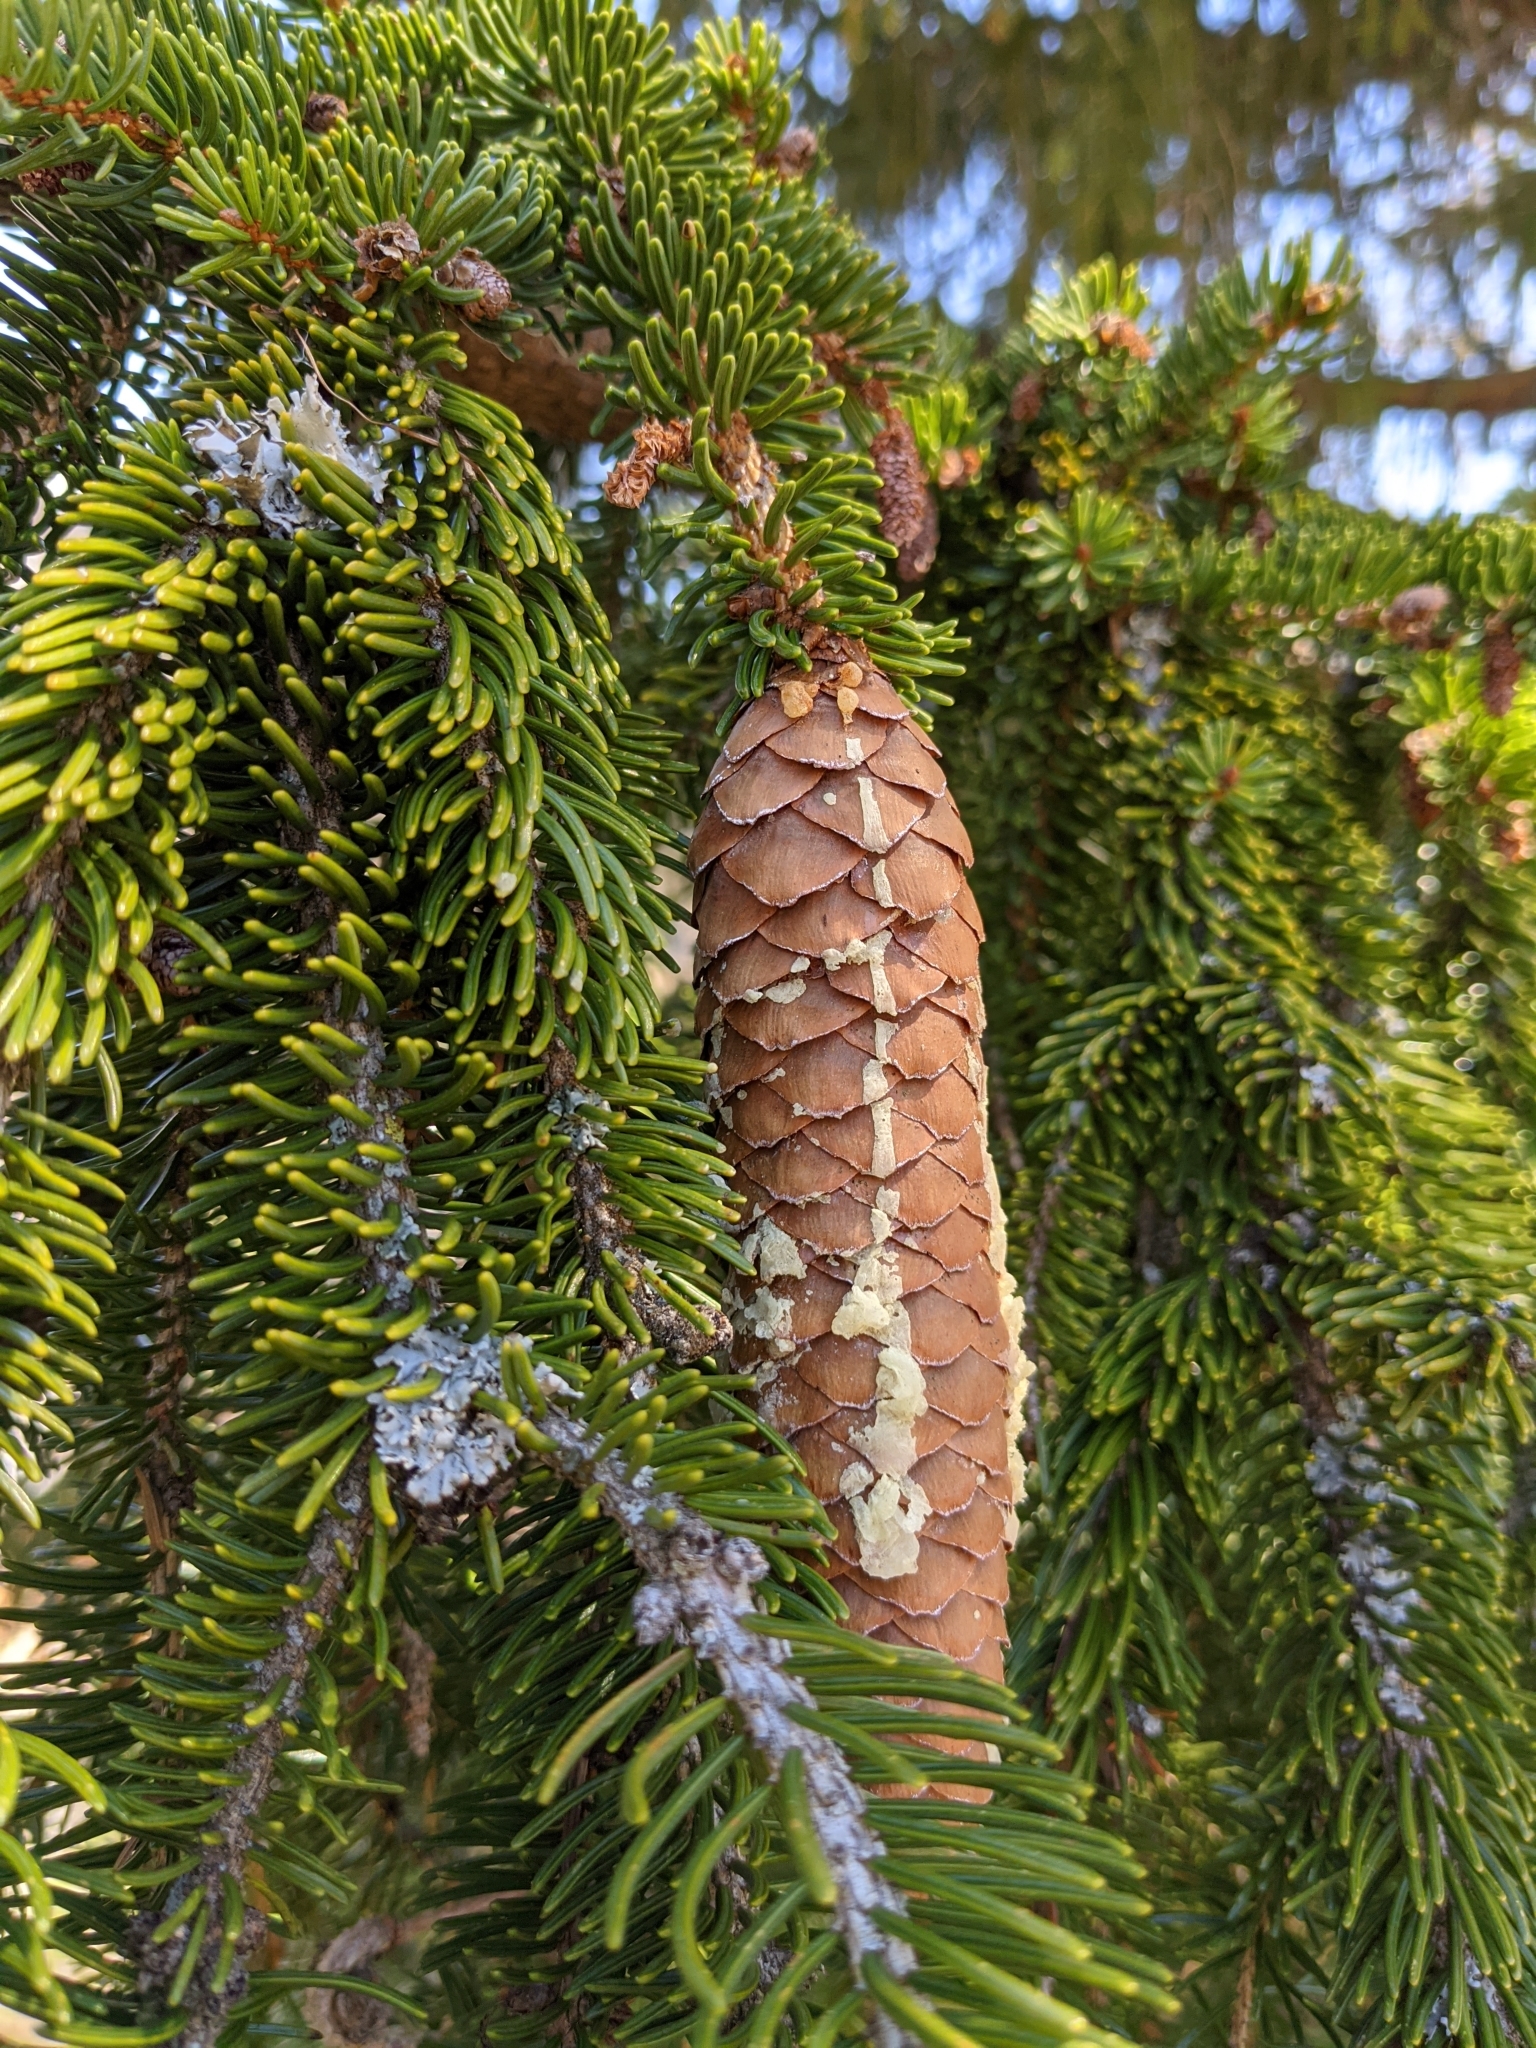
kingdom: Plantae
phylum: Tracheophyta
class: Pinopsida
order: Pinales
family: Pinaceae
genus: Picea
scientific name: Picea abies
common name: Norway spruce
